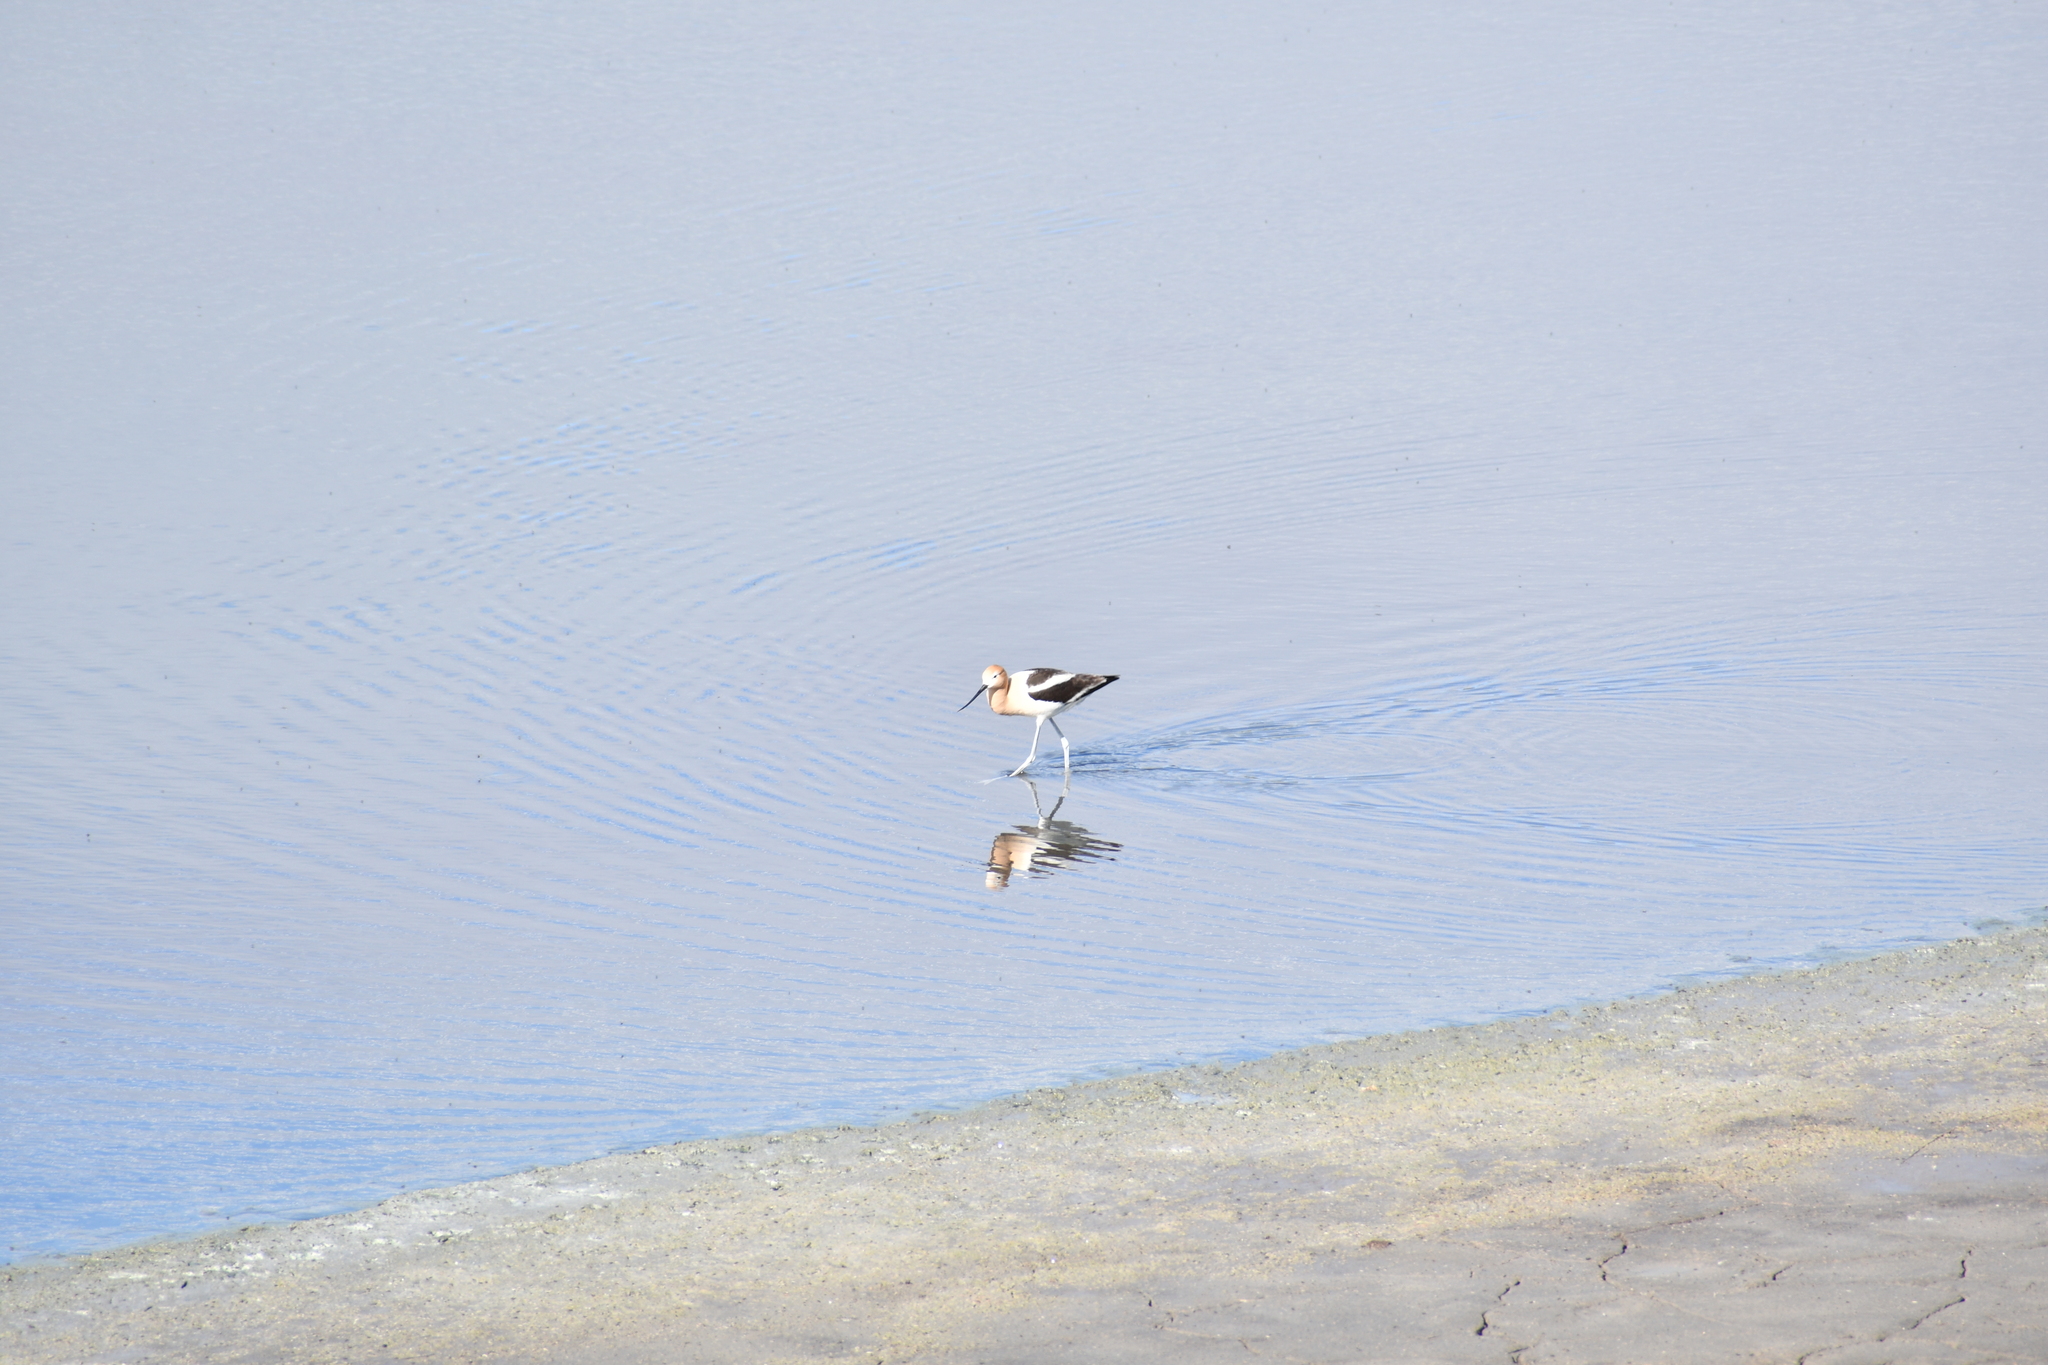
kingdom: Animalia
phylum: Chordata
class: Aves
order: Charadriiformes
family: Recurvirostridae
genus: Recurvirostra
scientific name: Recurvirostra americana
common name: American avocet
